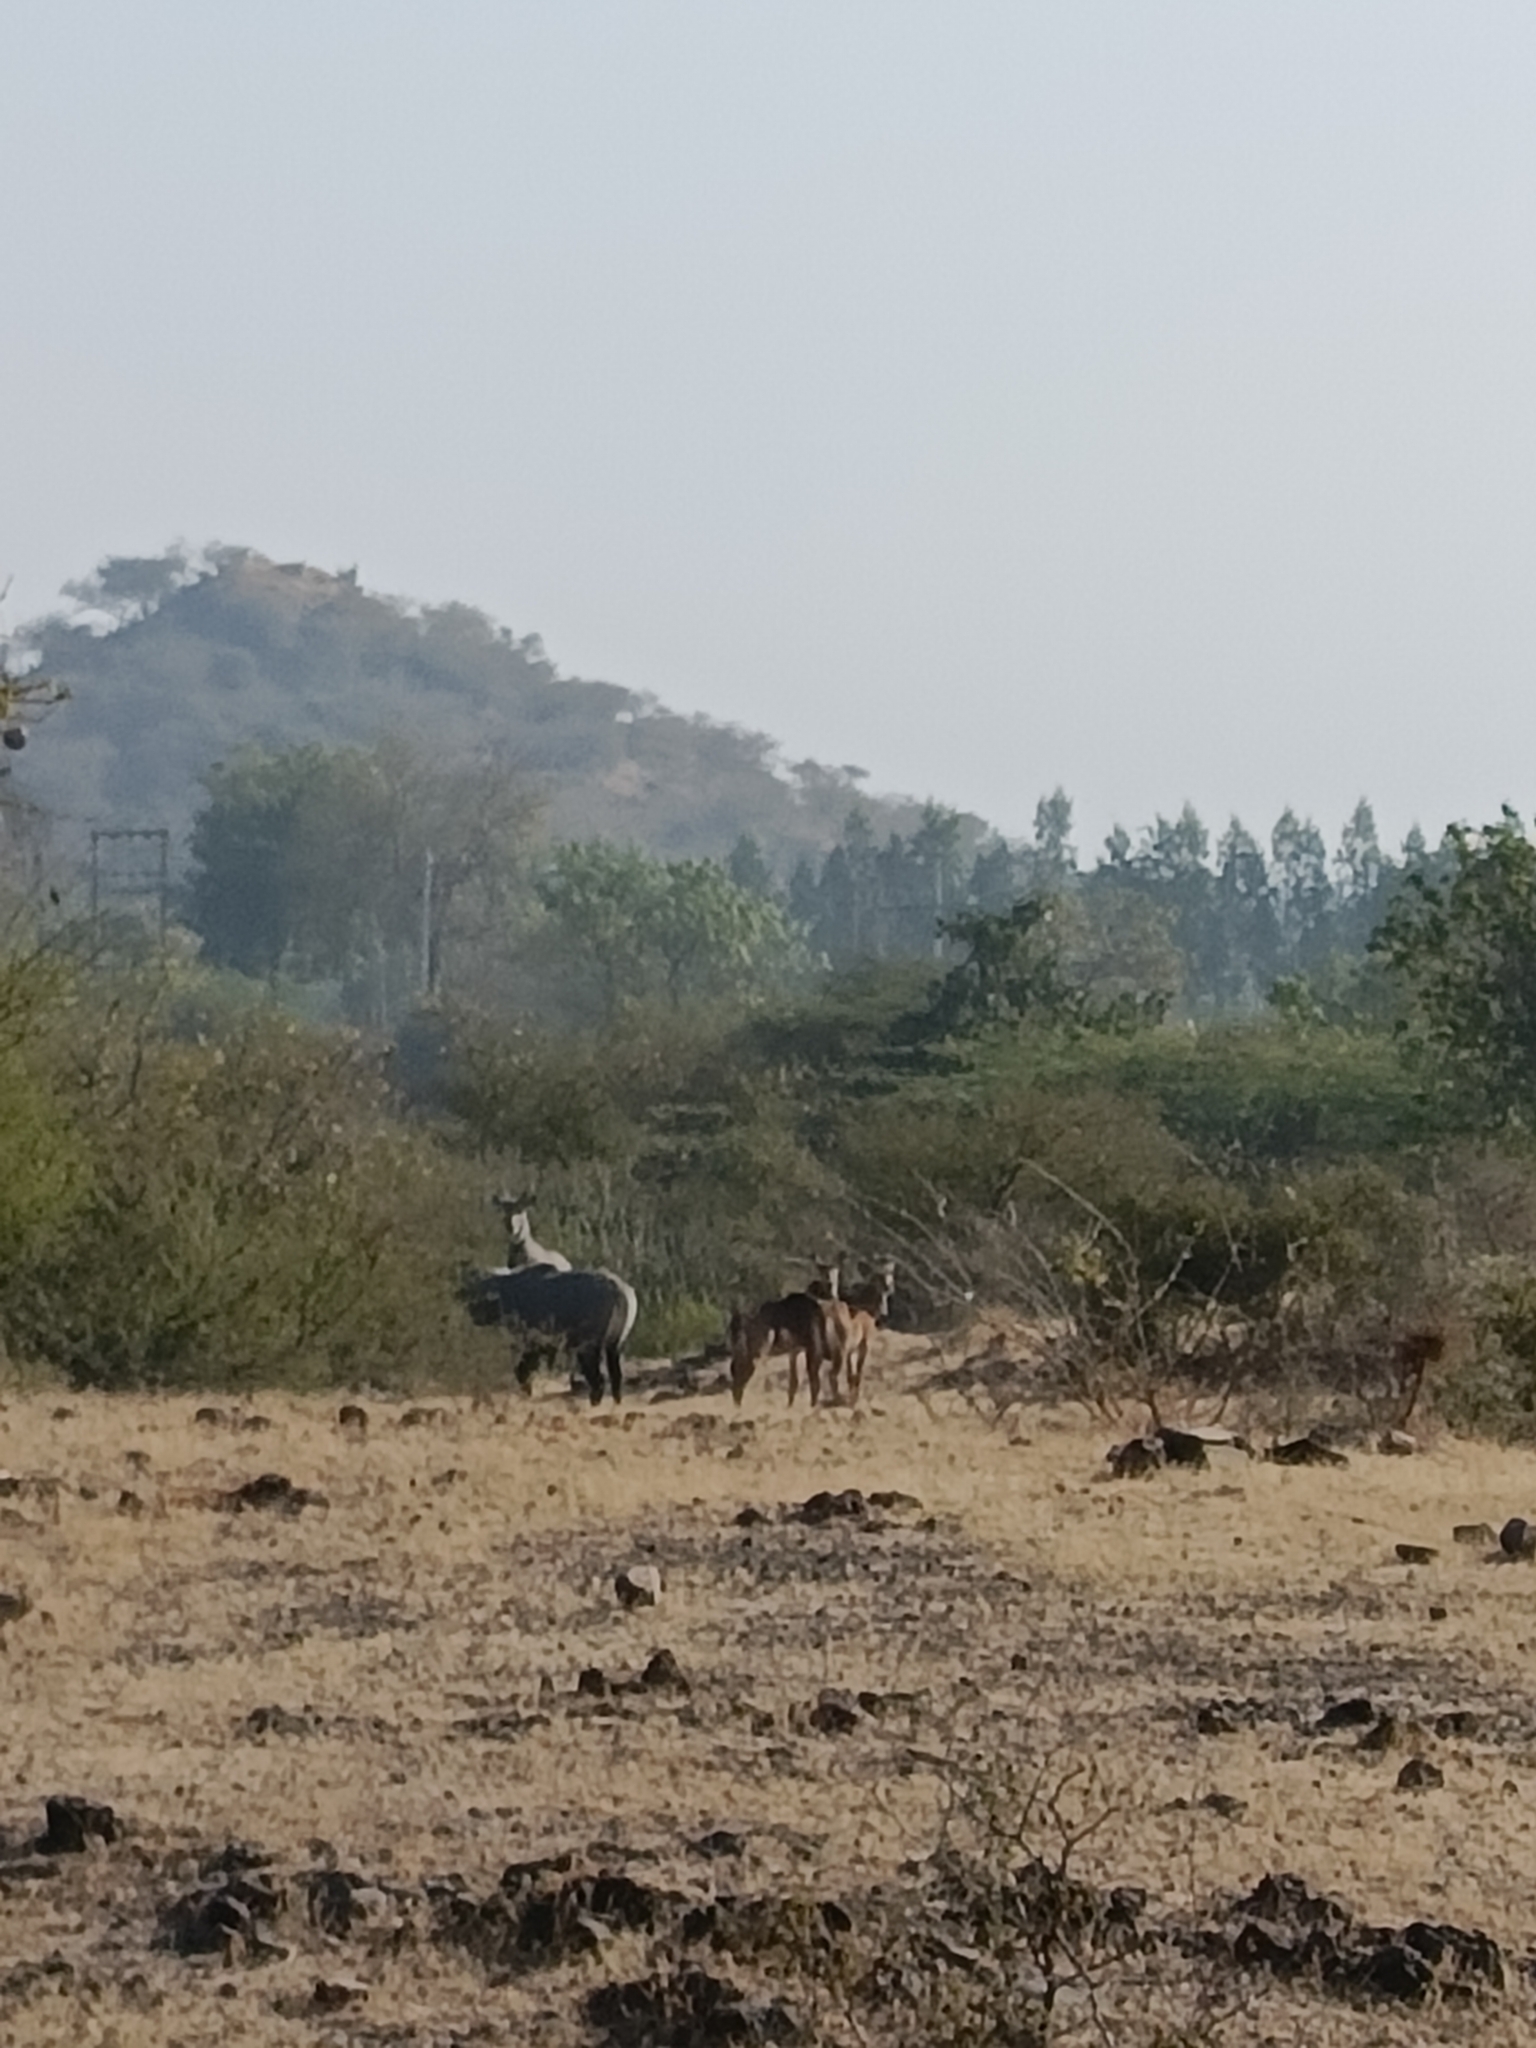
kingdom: Animalia
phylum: Chordata
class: Mammalia
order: Artiodactyla
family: Bovidae
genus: Boselaphus
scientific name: Boselaphus tragocamelus
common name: Nilgai
